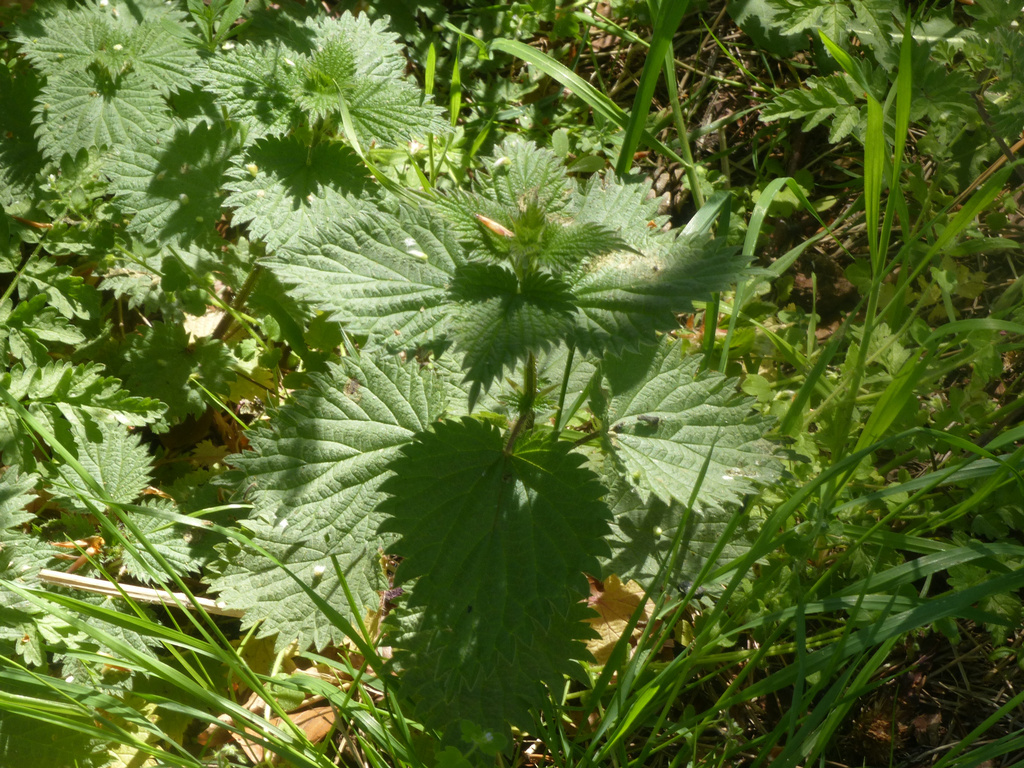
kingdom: Plantae
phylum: Tracheophyta
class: Magnoliopsida
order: Rosales
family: Urticaceae
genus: Urtica
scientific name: Urtica dioica
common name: Common nettle
